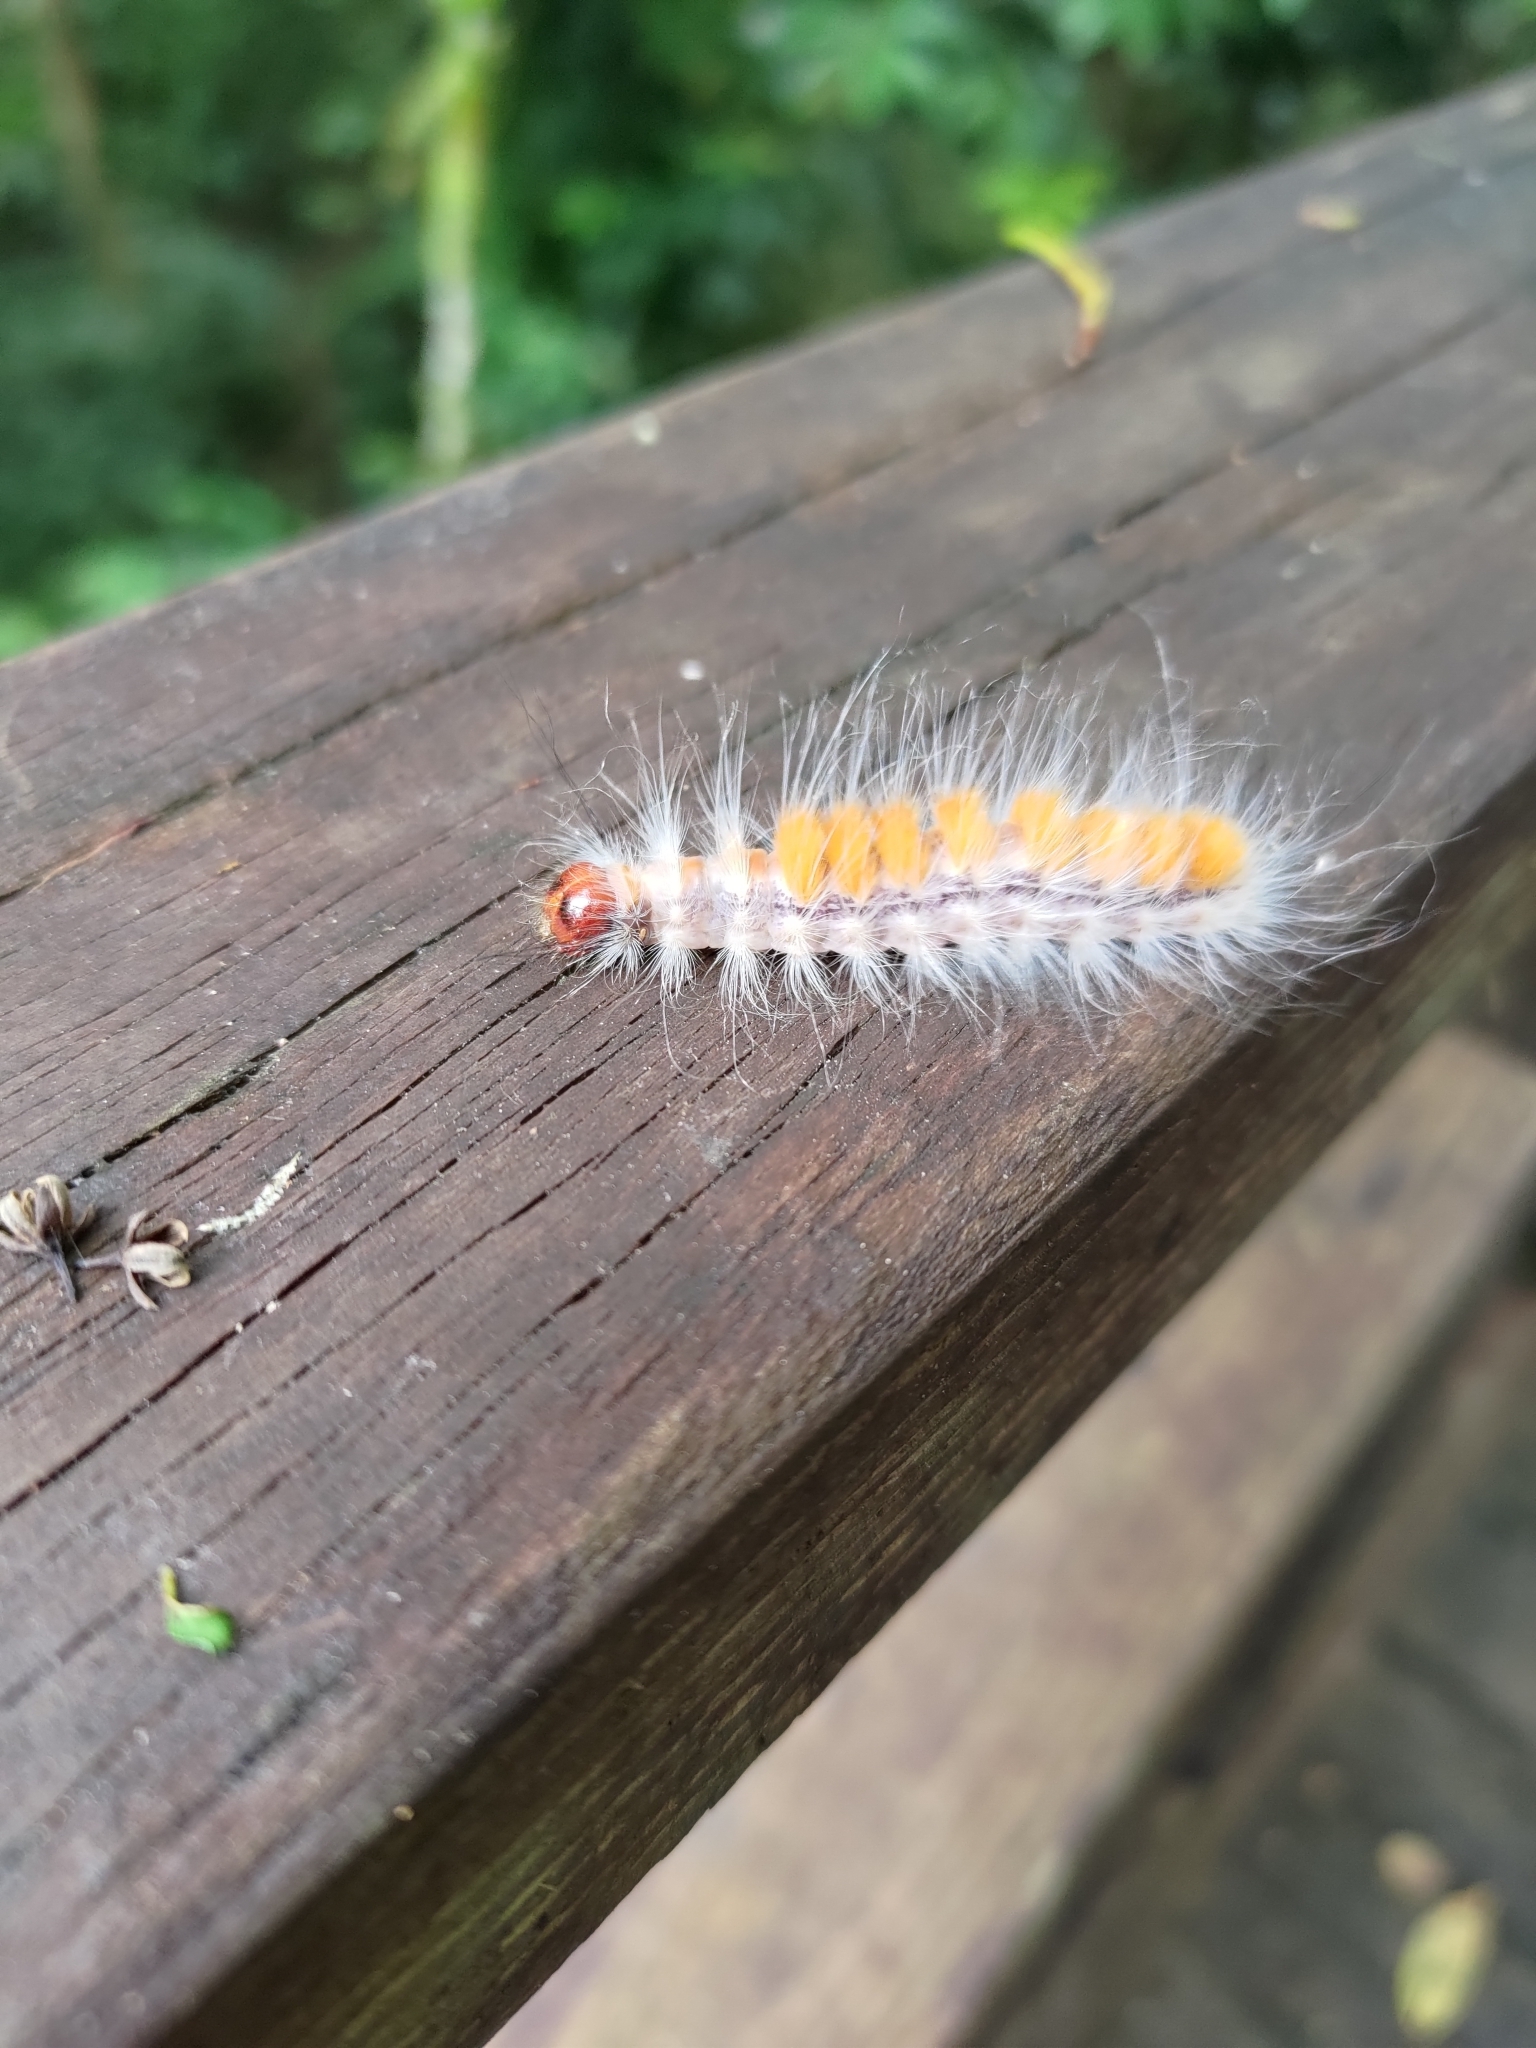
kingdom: Animalia
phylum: Arthropoda
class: Insecta
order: Lepidoptera
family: Noctuidae
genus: Trisuloides
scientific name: Trisuloides sericea
